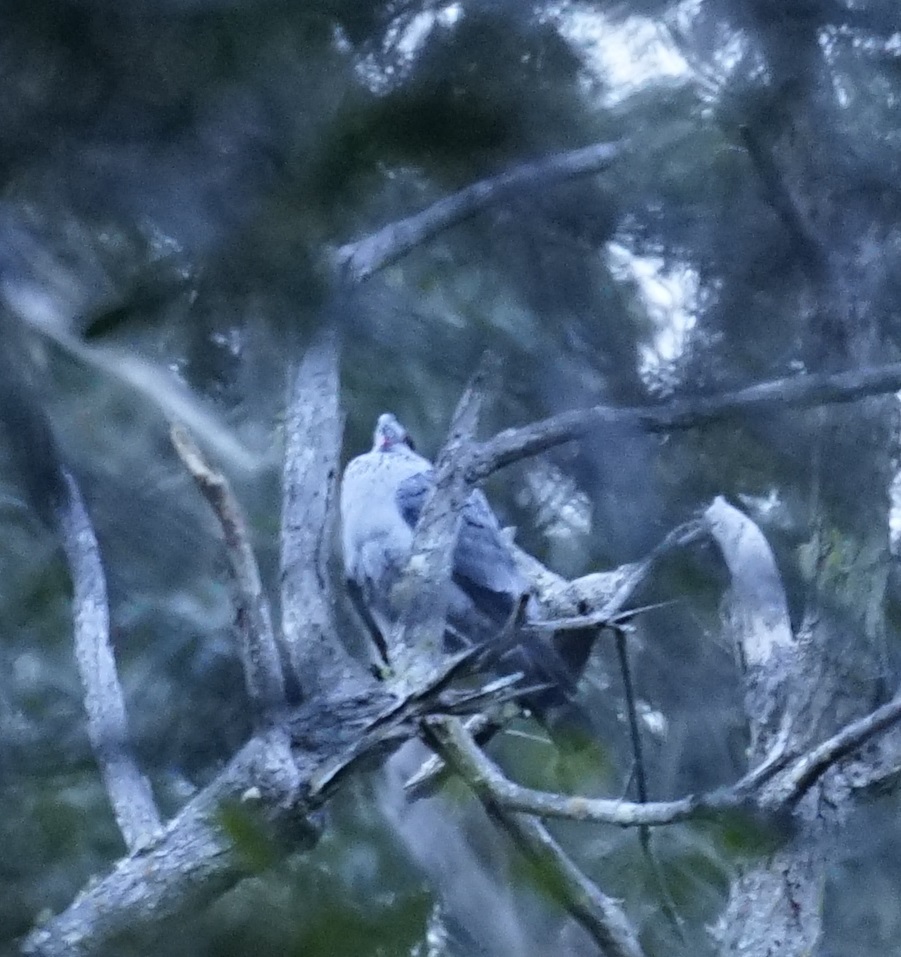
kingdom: Animalia
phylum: Chordata
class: Aves
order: Columbiformes
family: Columbidae
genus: Lopholaimus
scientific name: Lopholaimus antarcticus
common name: Topknot pigeon
